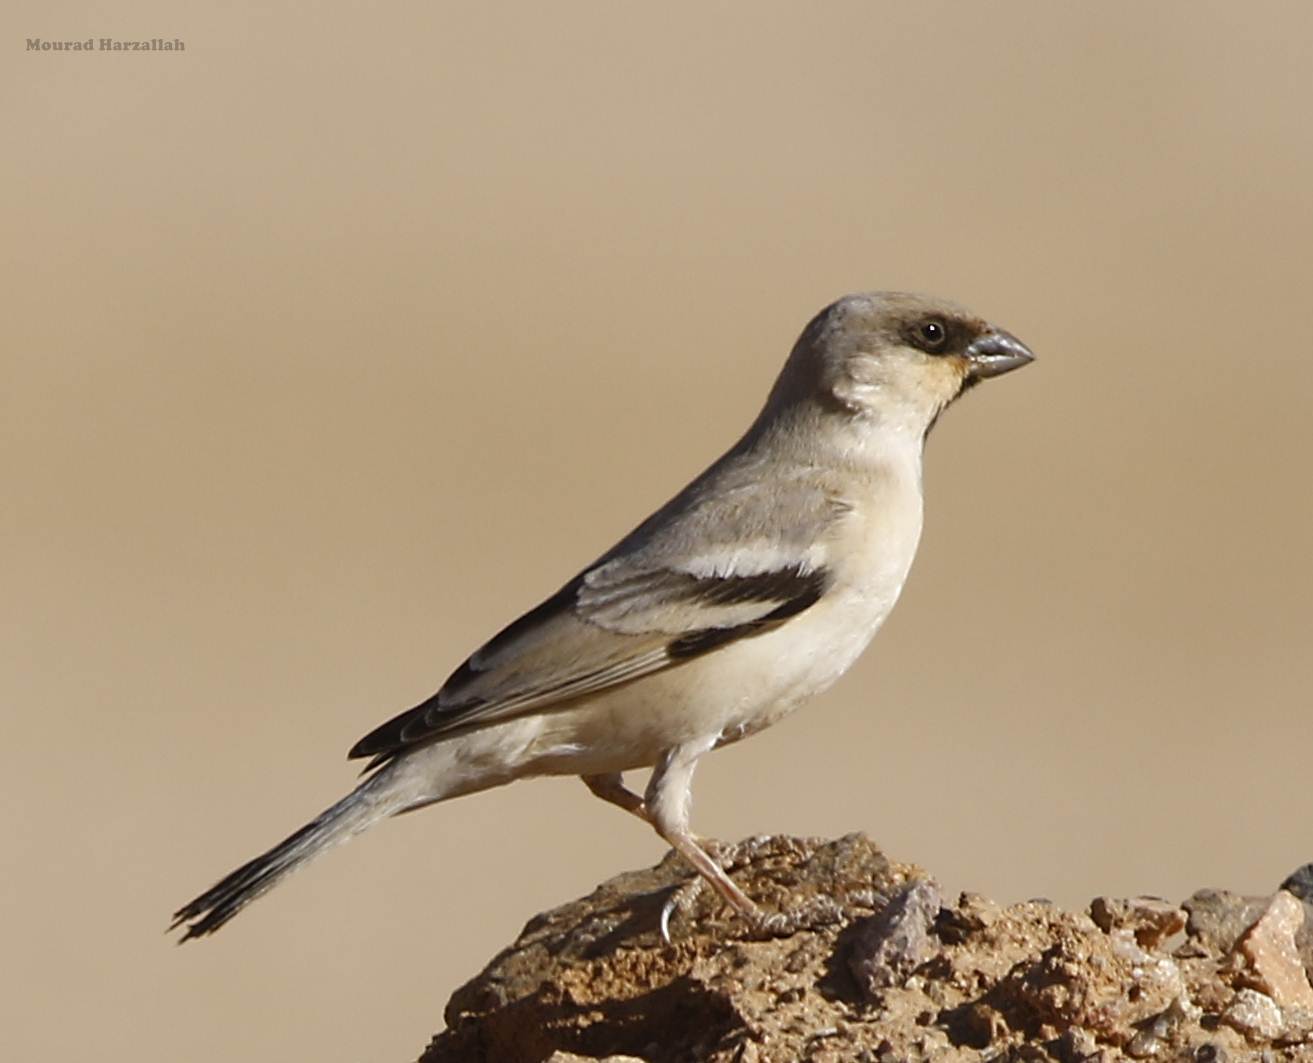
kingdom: Animalia
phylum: Chordata
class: Aves
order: Passeriformes
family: Passeridae
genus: Passer
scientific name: Passer simplex
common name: Desert sparrow
